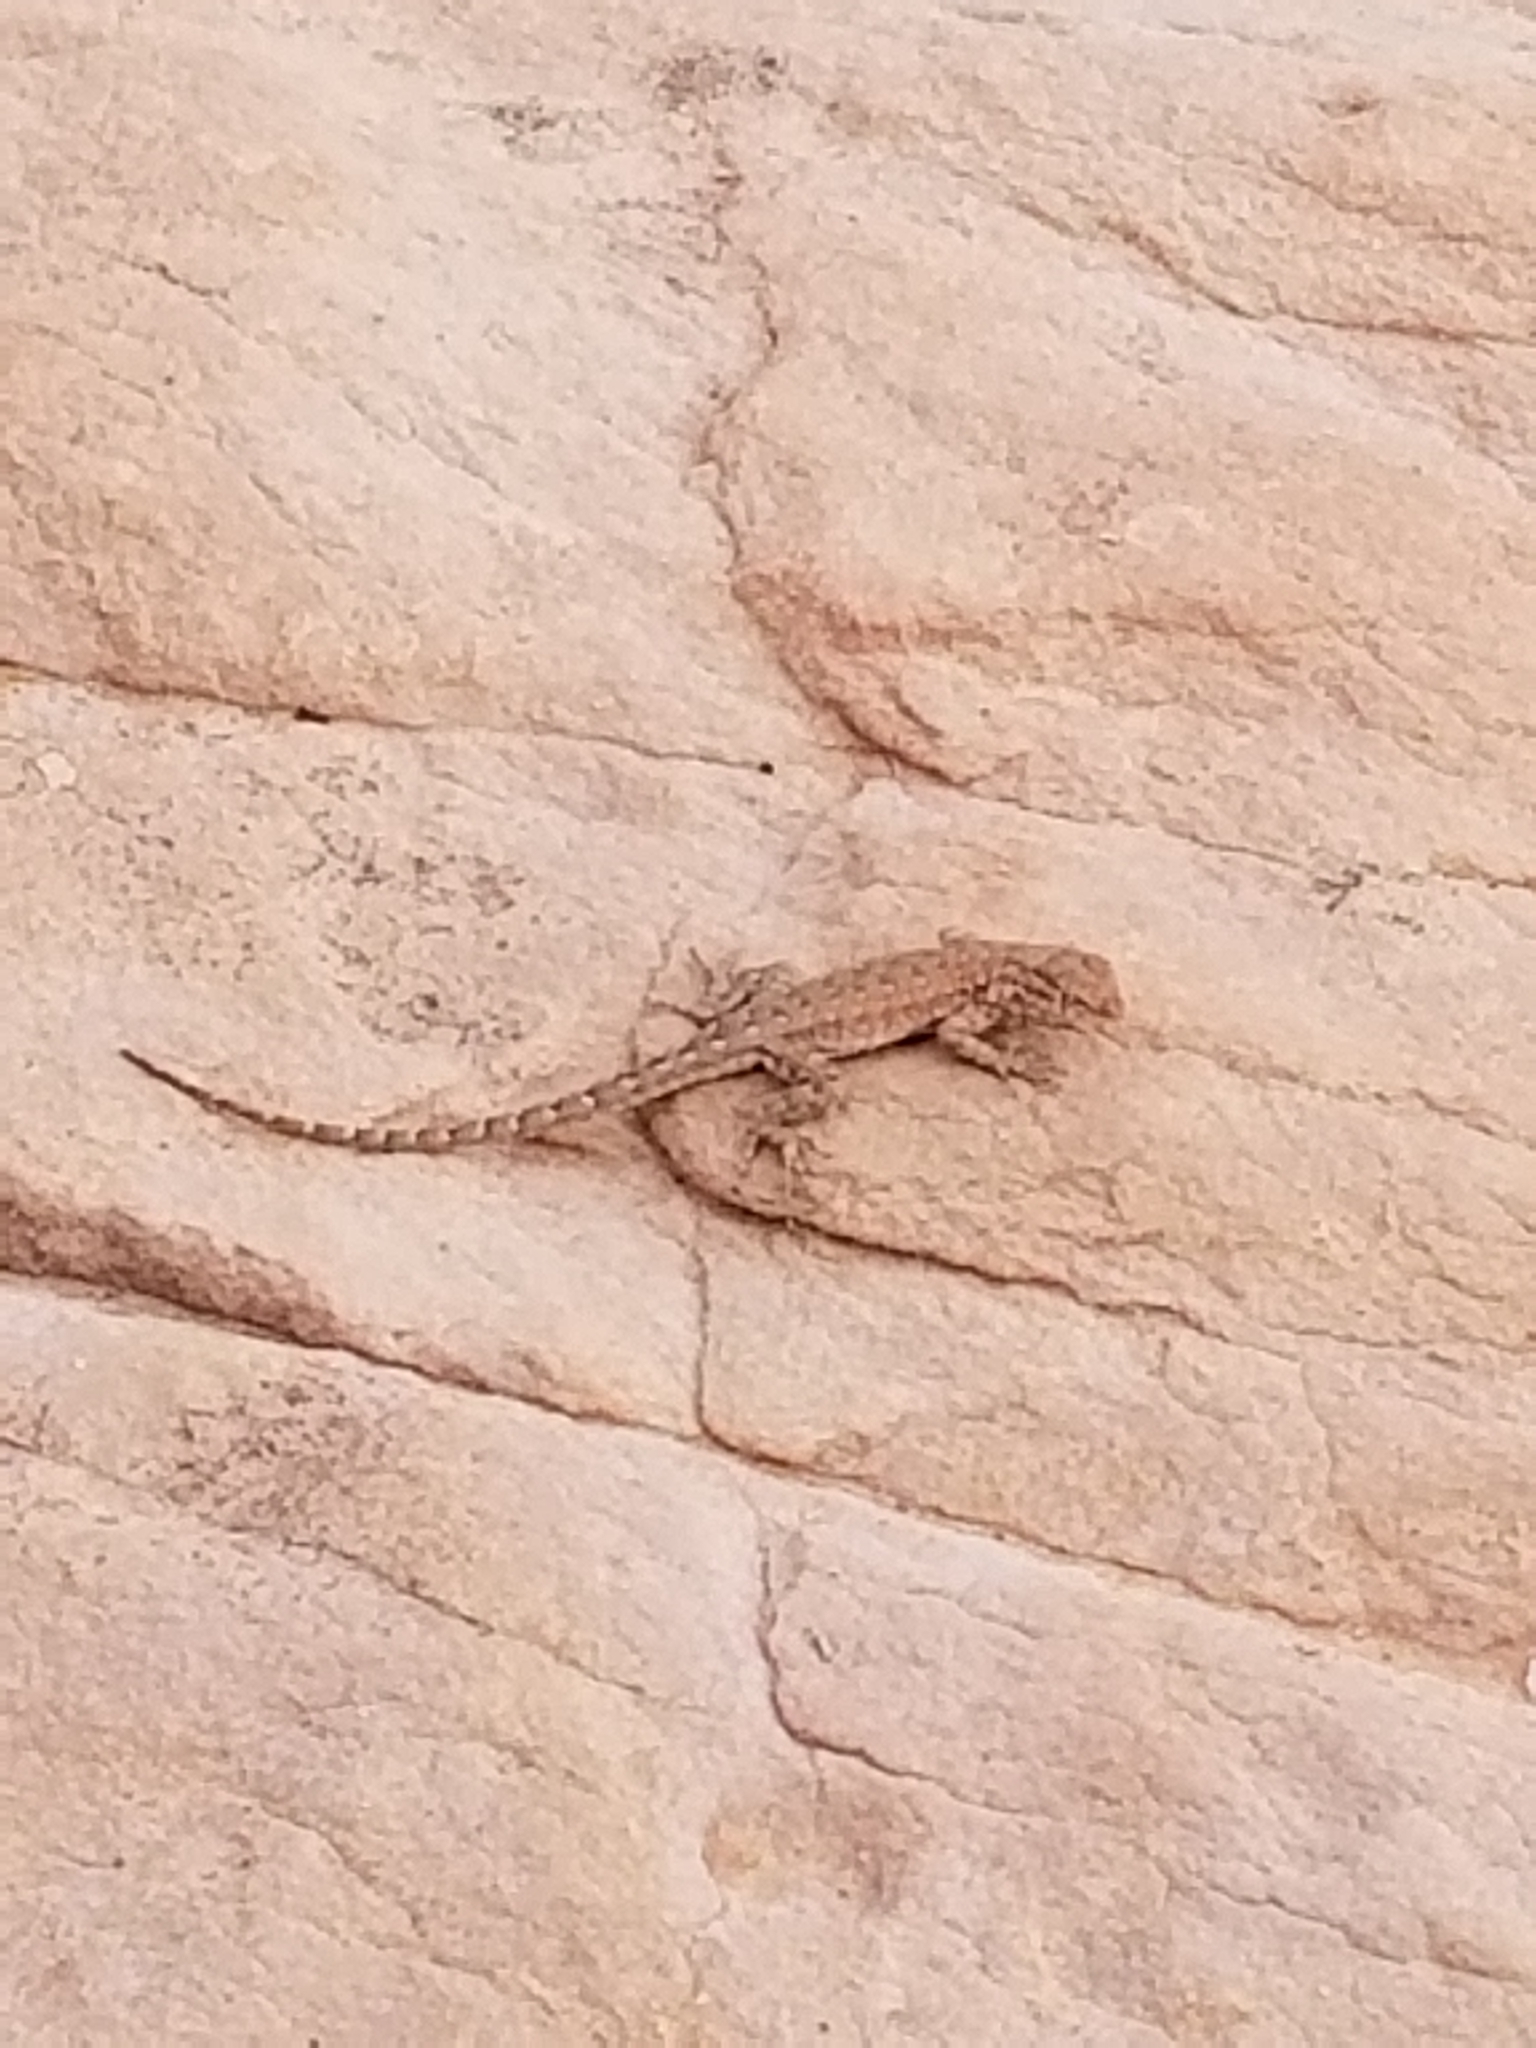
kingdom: Animalia
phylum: Chordata
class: Squamata
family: Phrynosomatidae
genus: Uta
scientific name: Uta stansburiana
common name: Side-blotched lizard
